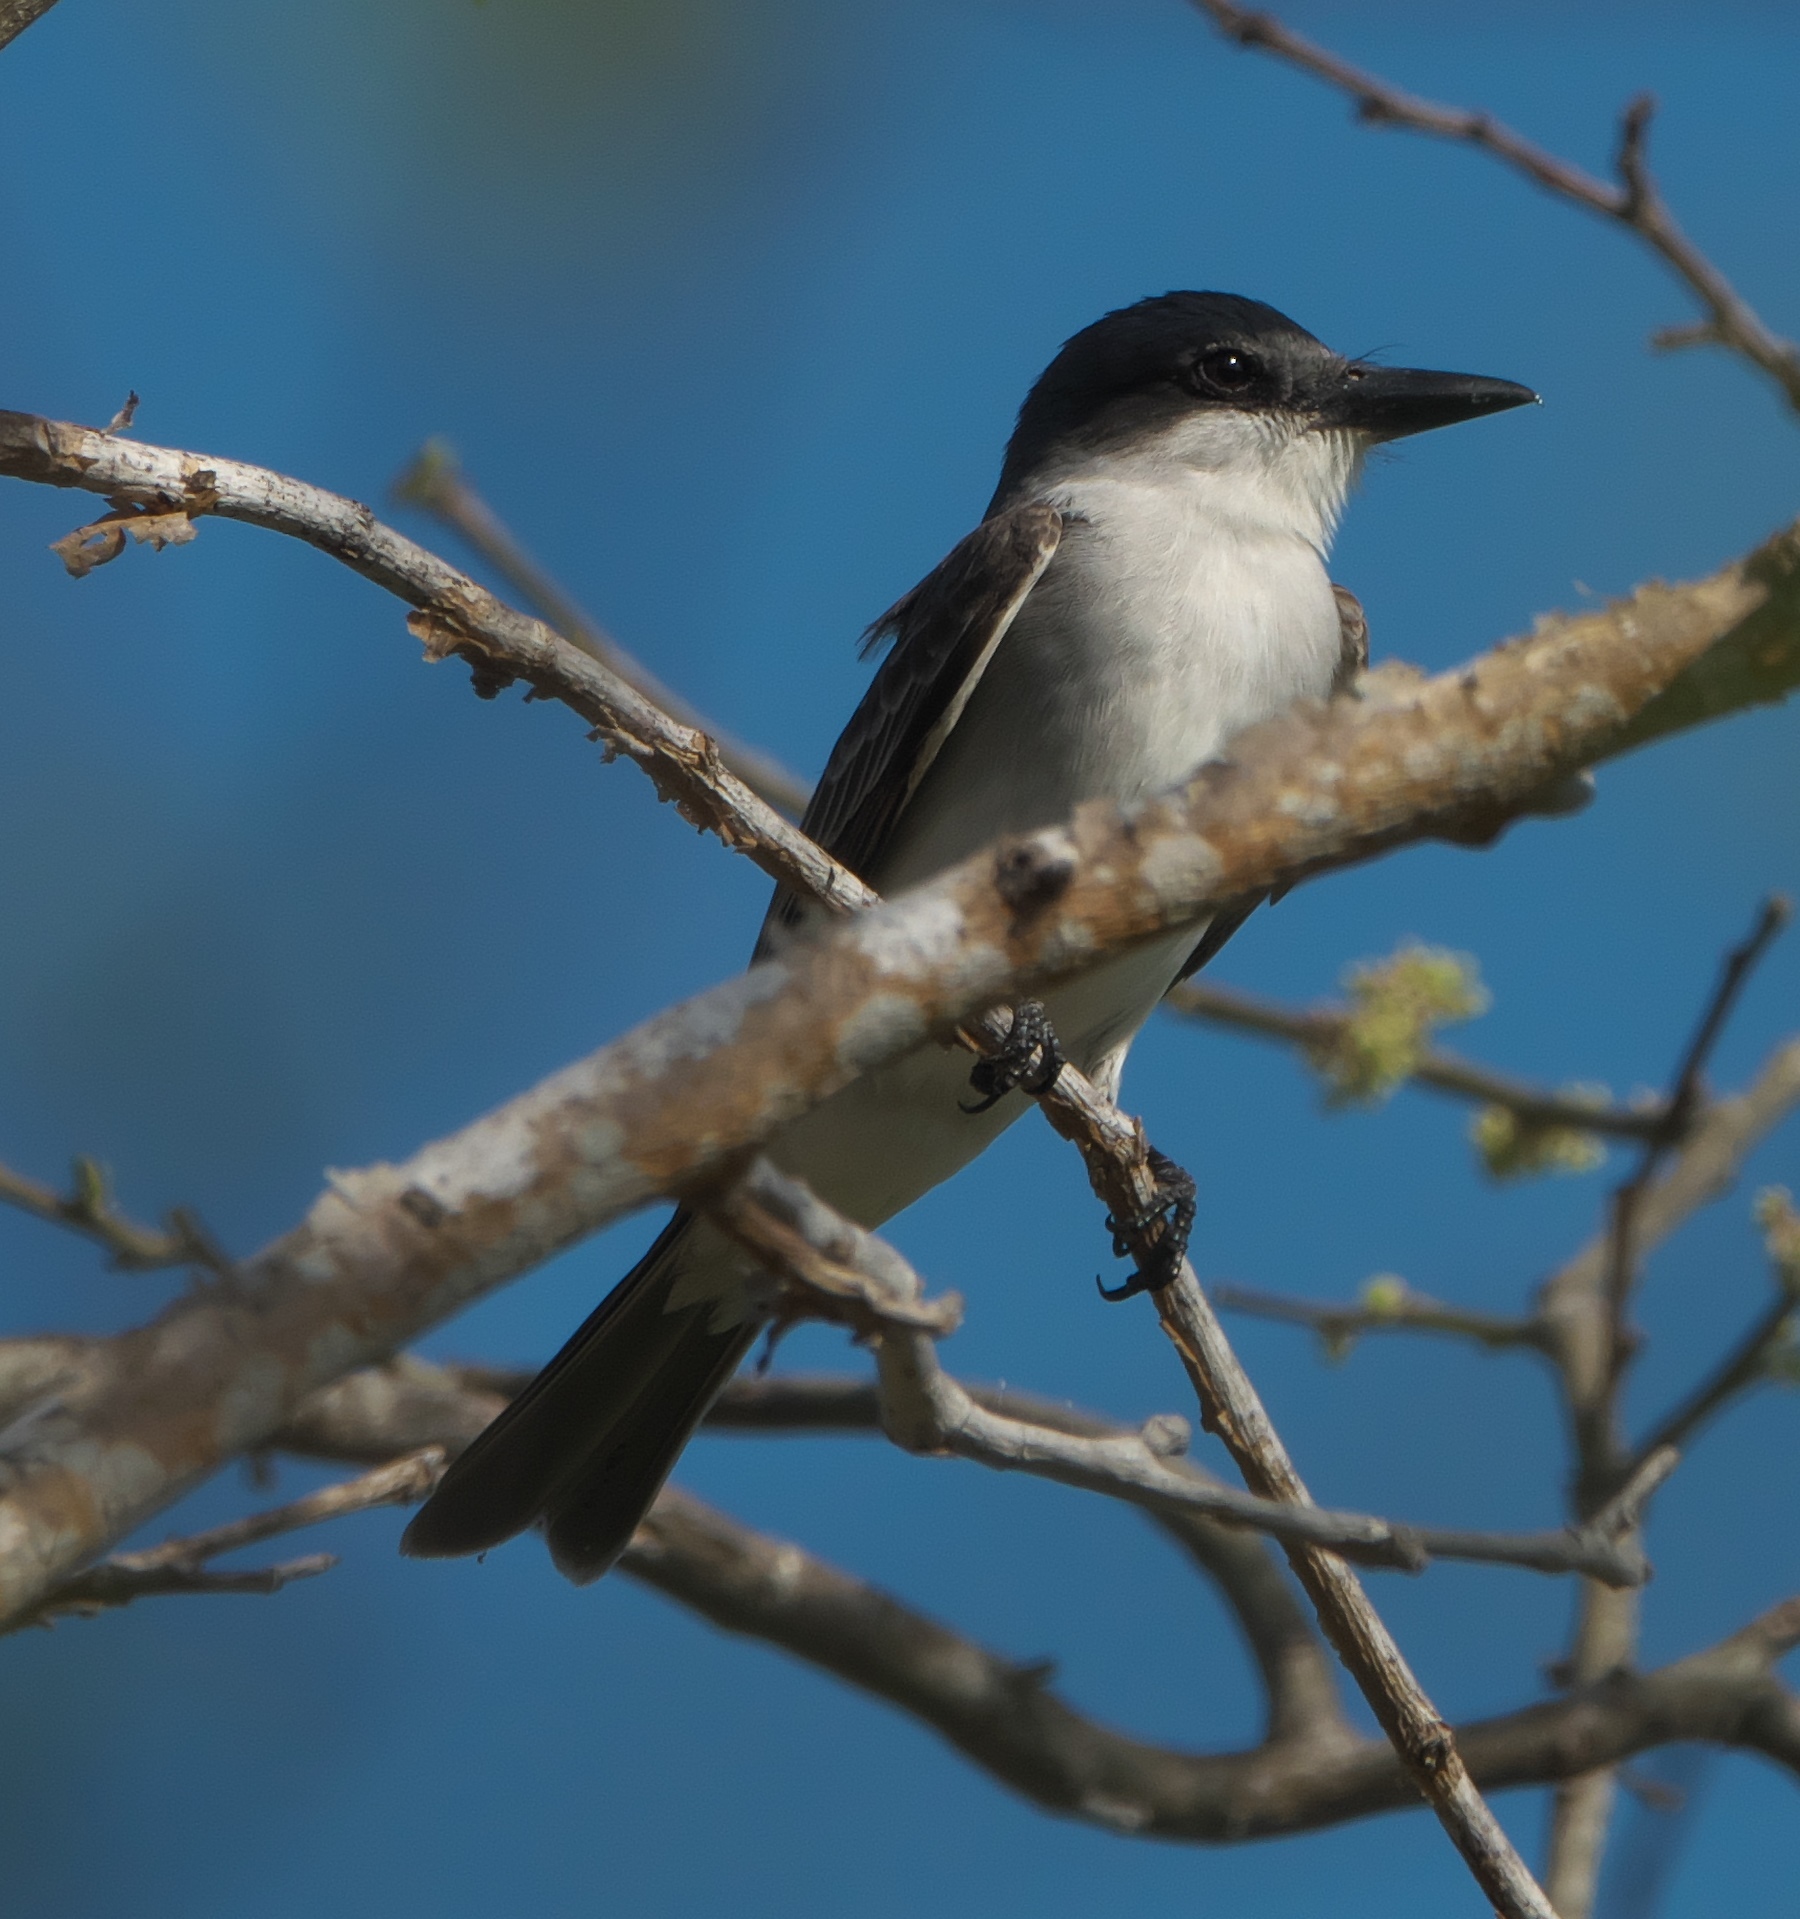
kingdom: Animalia
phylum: Chordata
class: Aves
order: Passeriformes
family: Tyrannidae
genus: Tyrannus
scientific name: Tyrannus dominicensis
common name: Gray kingbird
